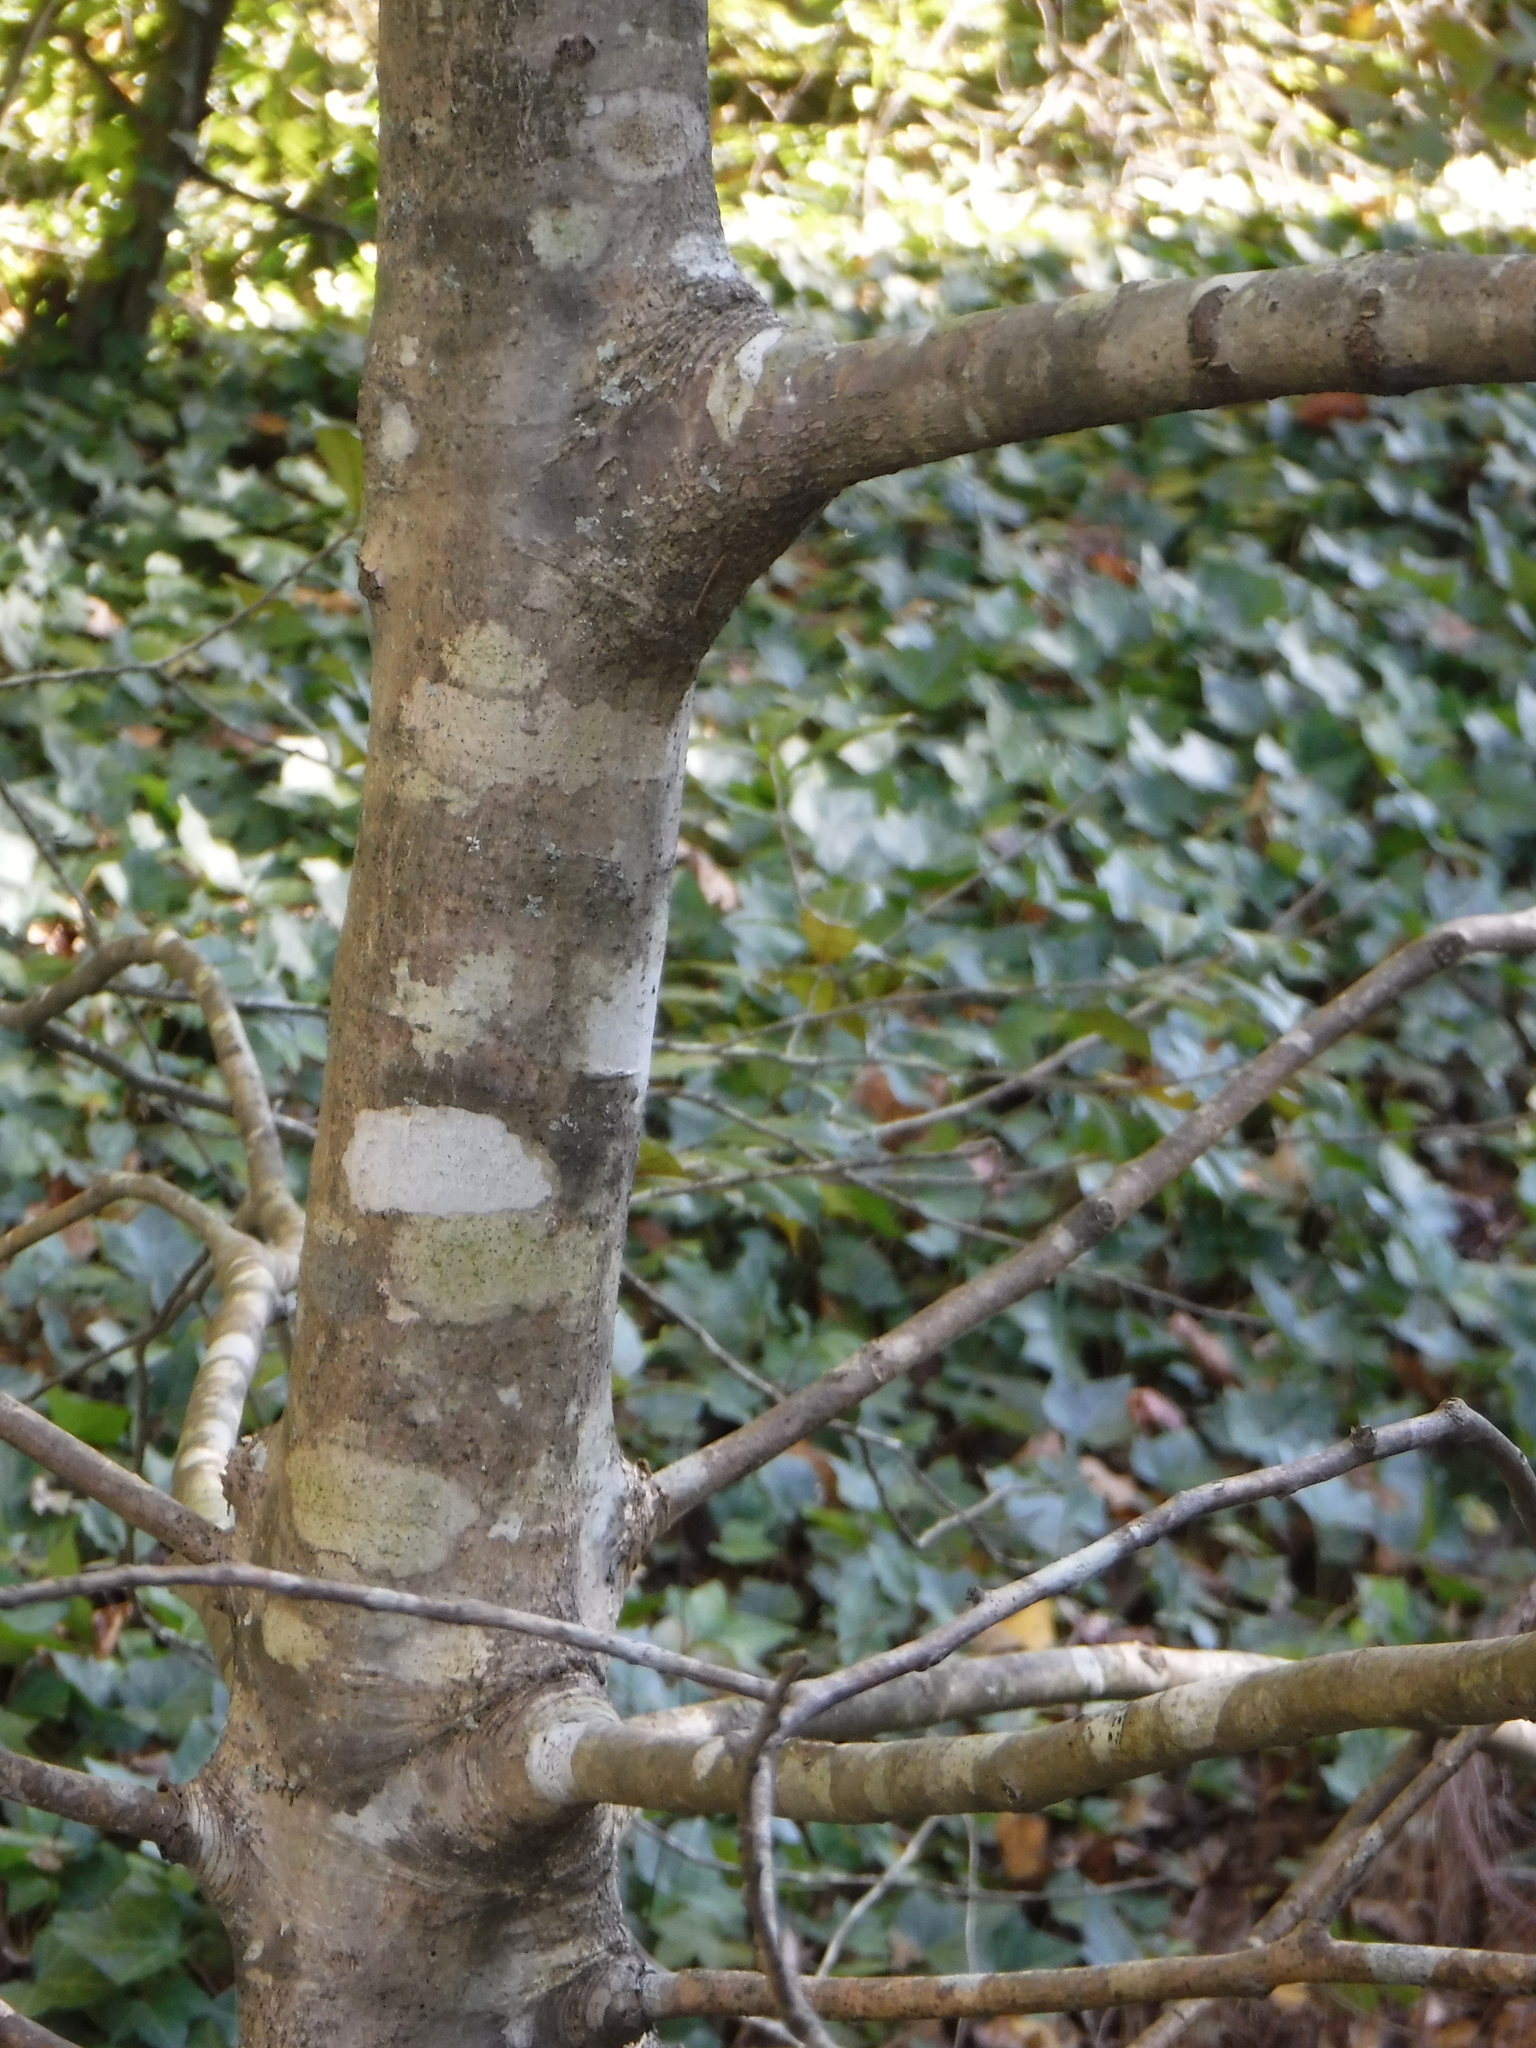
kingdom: Plantae
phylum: Tracheophyta
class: Magnoliopsida
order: Aquifoliales
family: Aquifoliaceae
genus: Ilex
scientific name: Ilex opaca
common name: American holly
